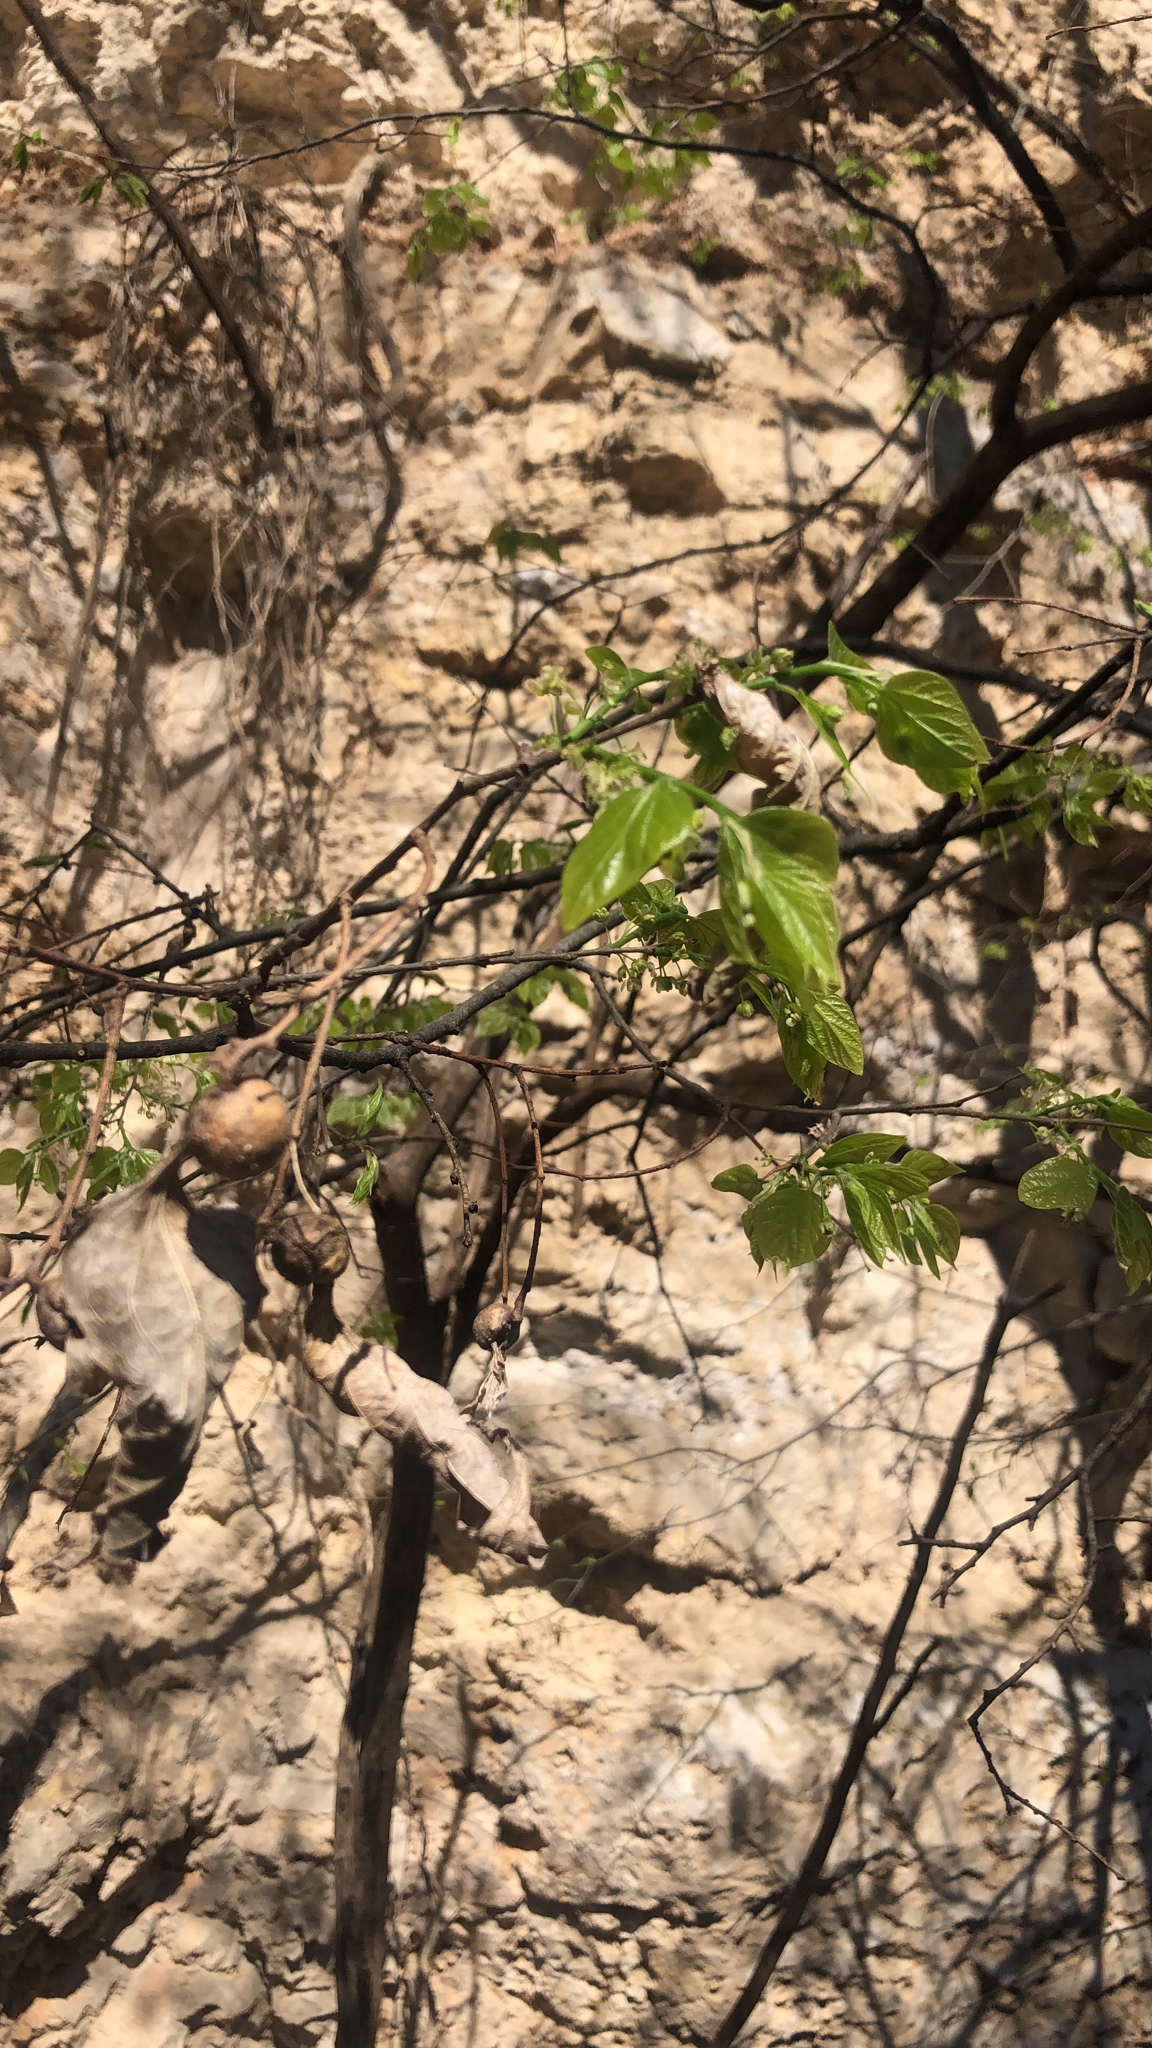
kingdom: Plantae
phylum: Tracheophyta
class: Magnoliopsida
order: Rosales
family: Cannabaceae
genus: Celtis
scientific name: Celtis laevigata
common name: Sugarberry
